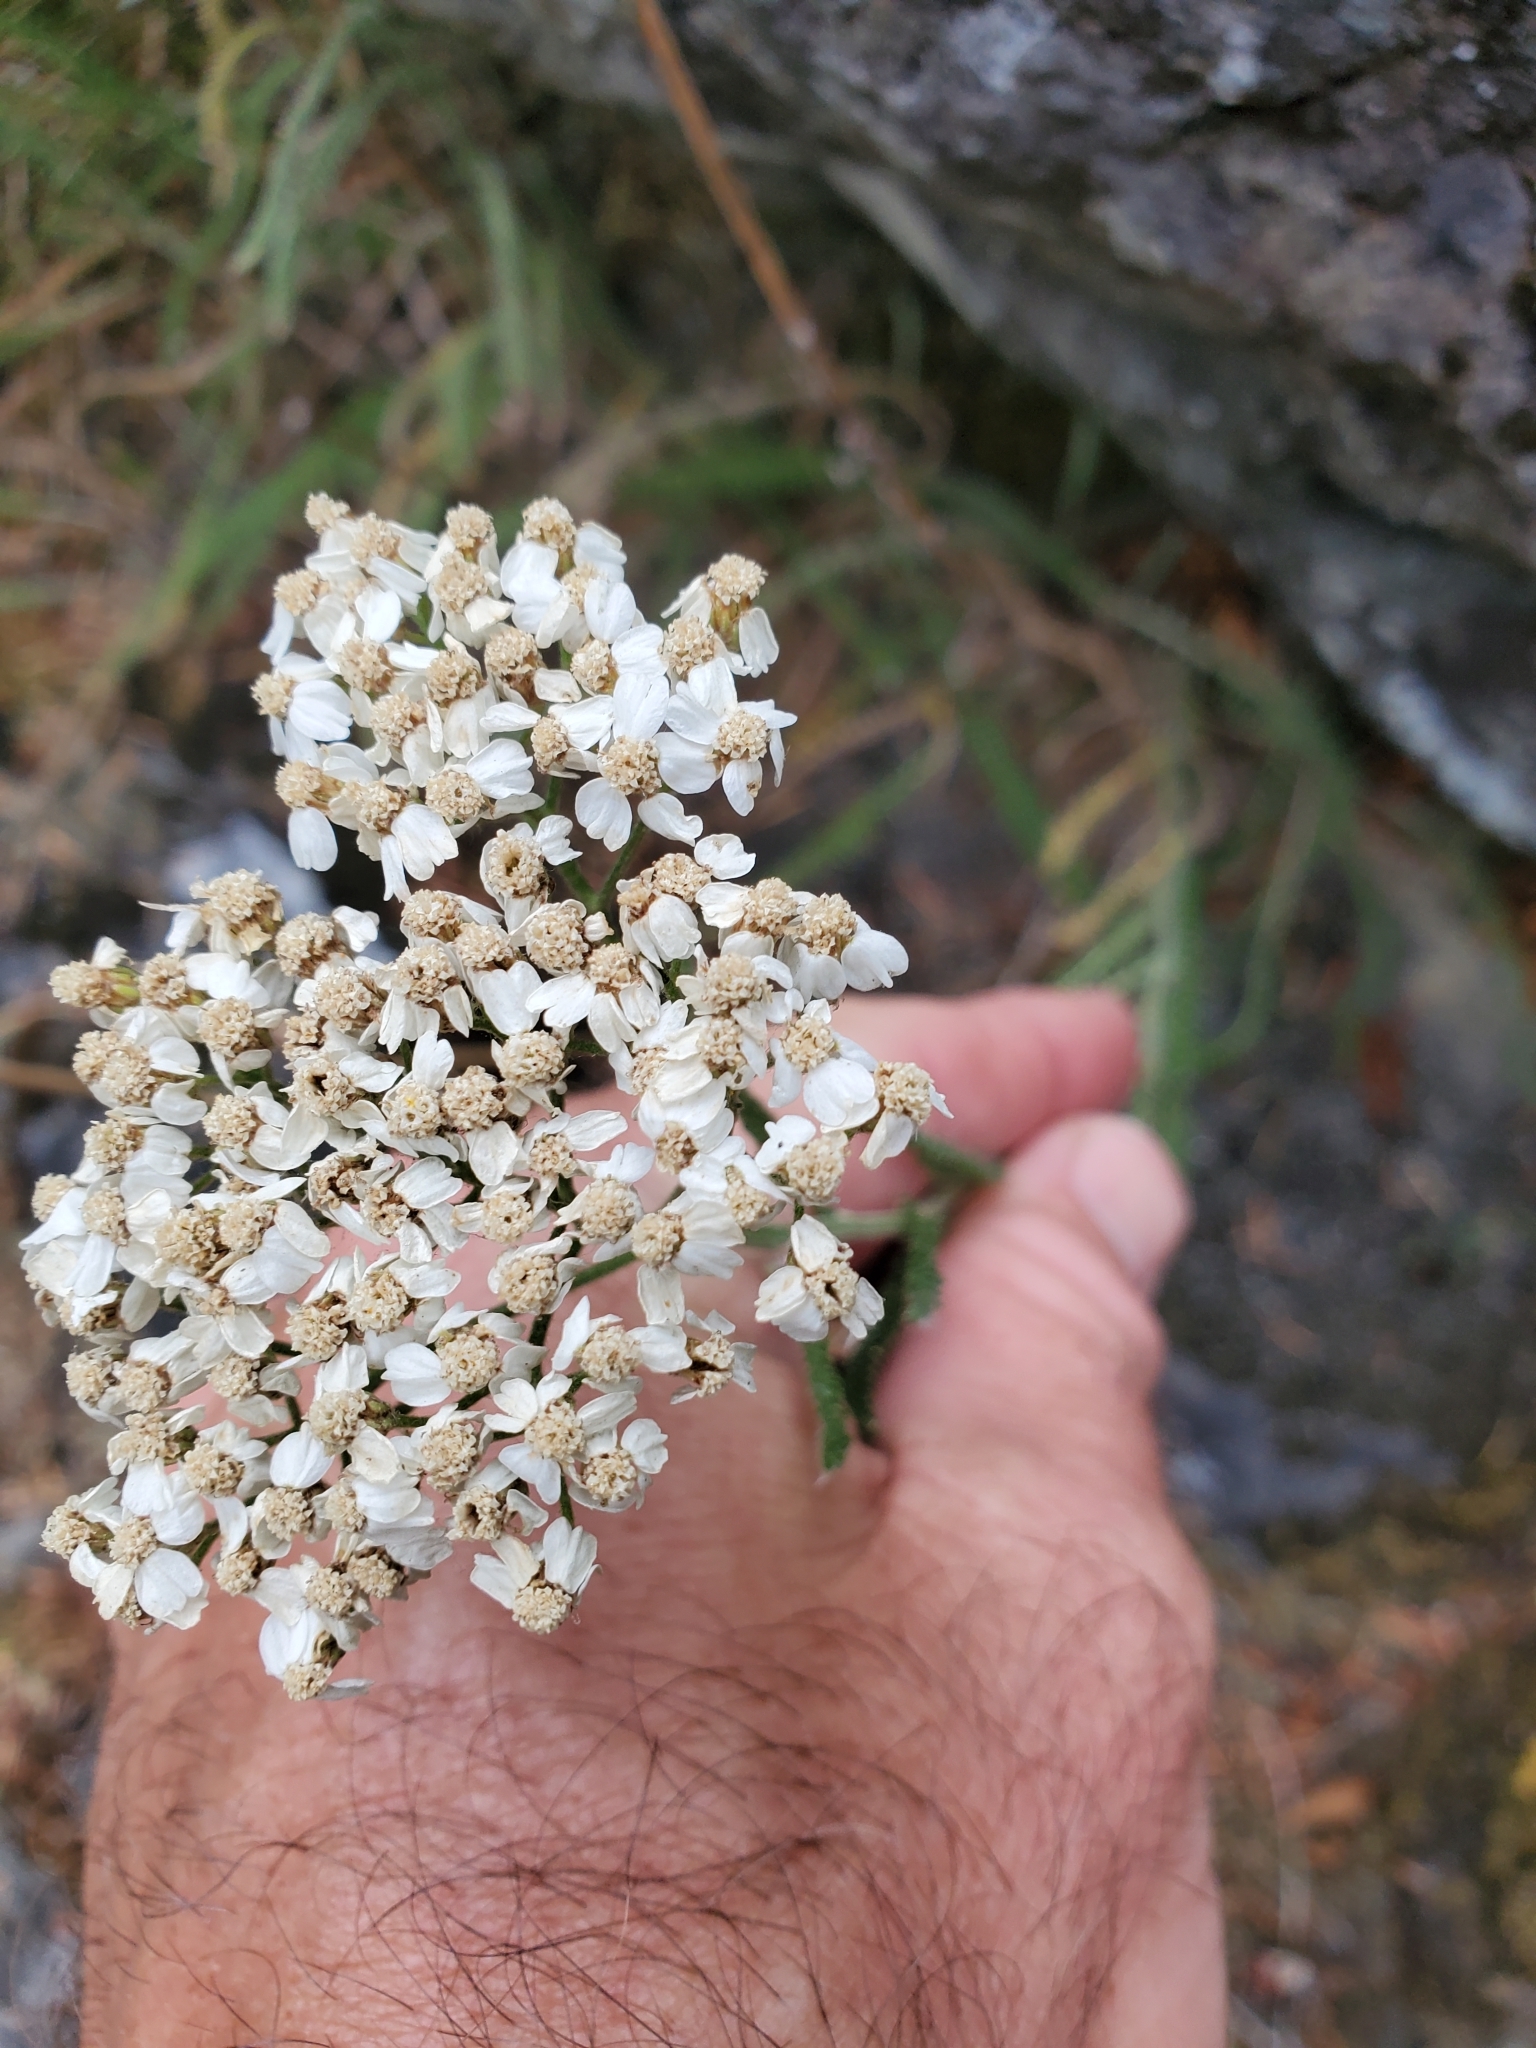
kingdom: Plantae
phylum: Tracheophyta
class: Magnoliopsida
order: Asterales
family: Asteraceae
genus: Achillea
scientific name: Achillea millefolium
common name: Yarrow
